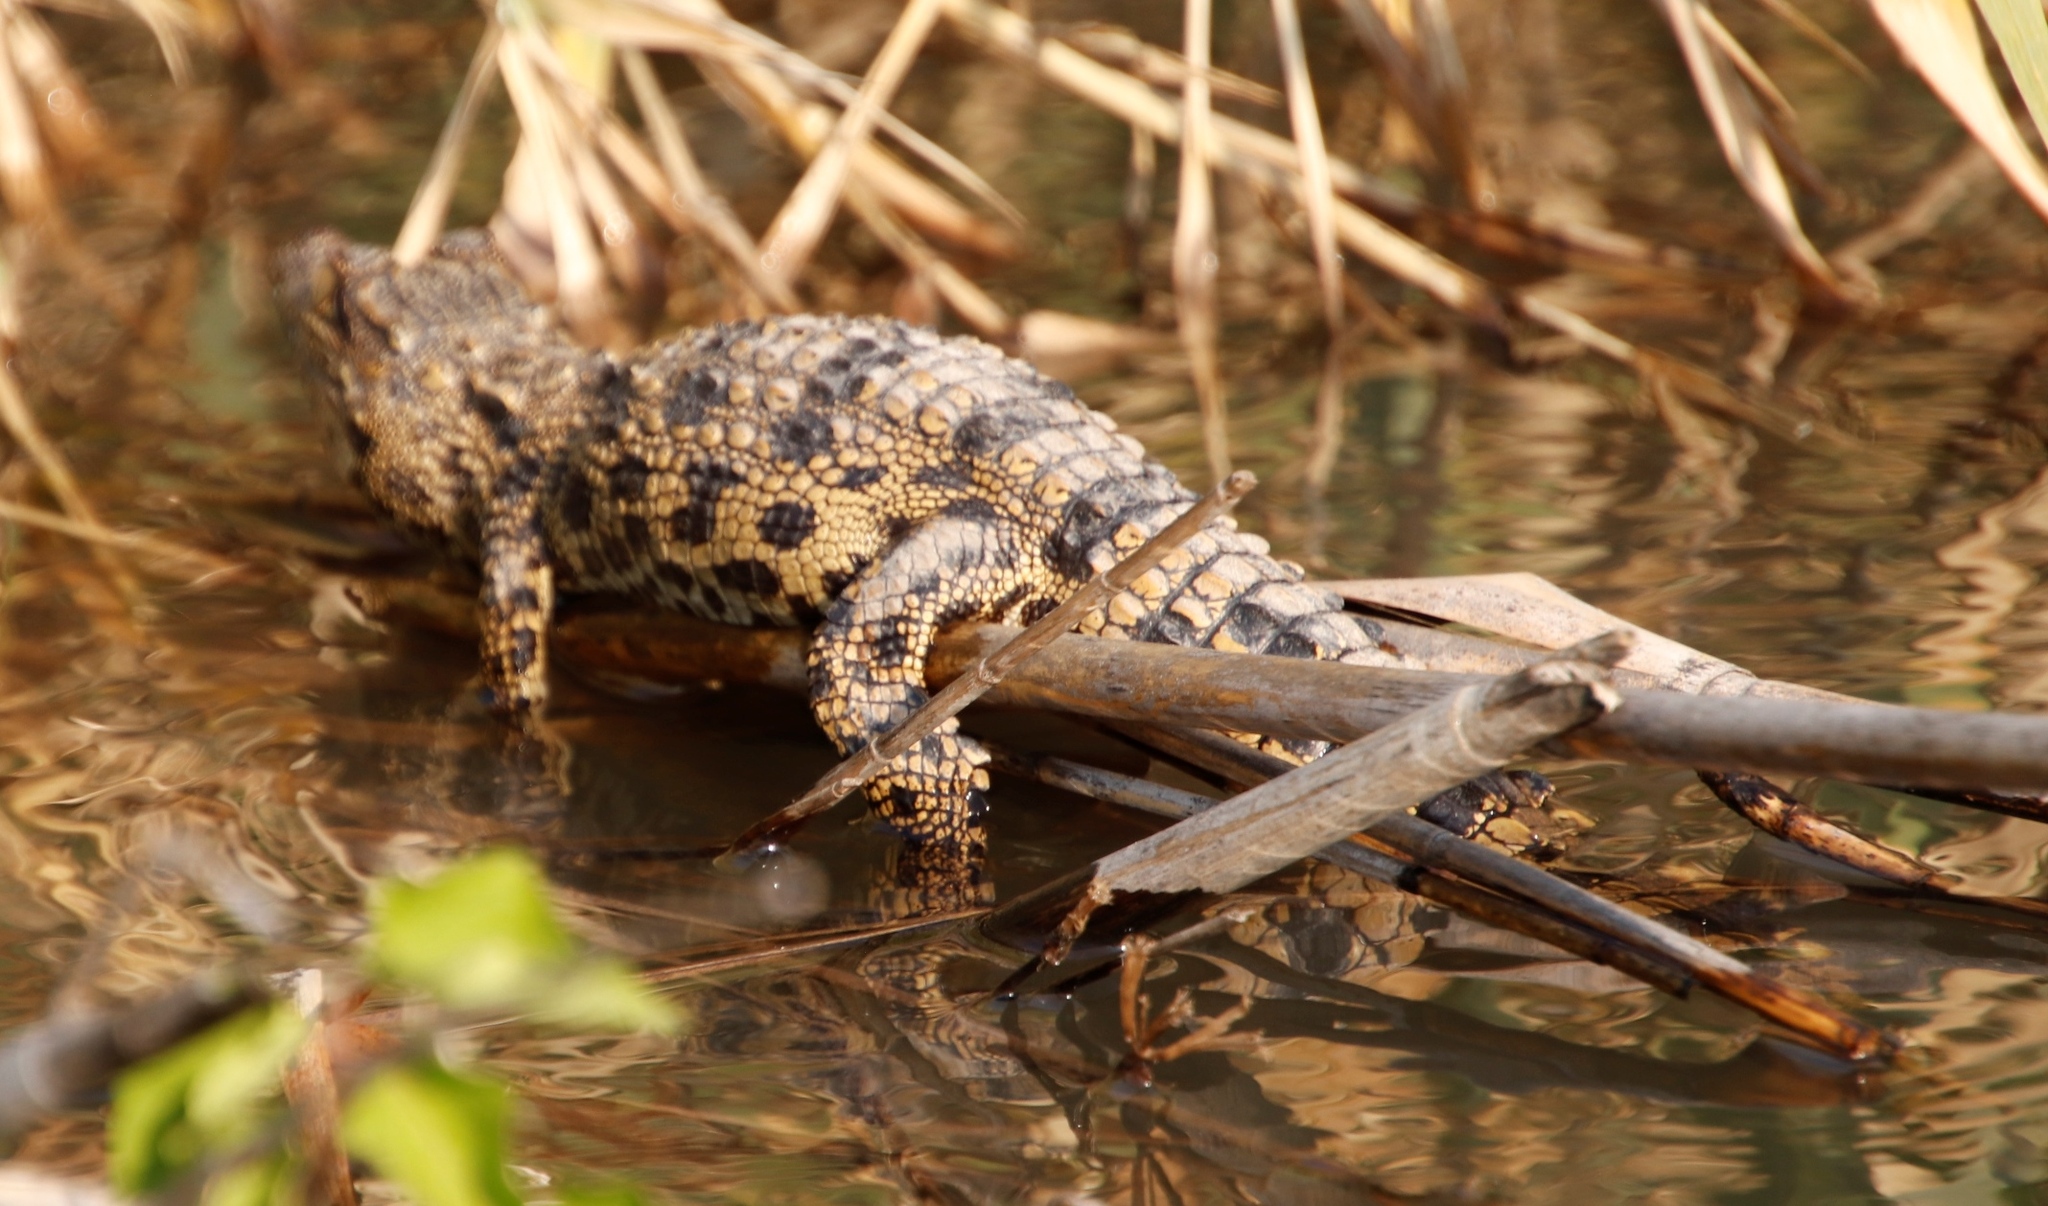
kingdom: Animalia
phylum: Chordata
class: Crocodylia
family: Crocodylidae
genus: Crocodylus
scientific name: Crocodylus niloticus
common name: Nile crocodile
